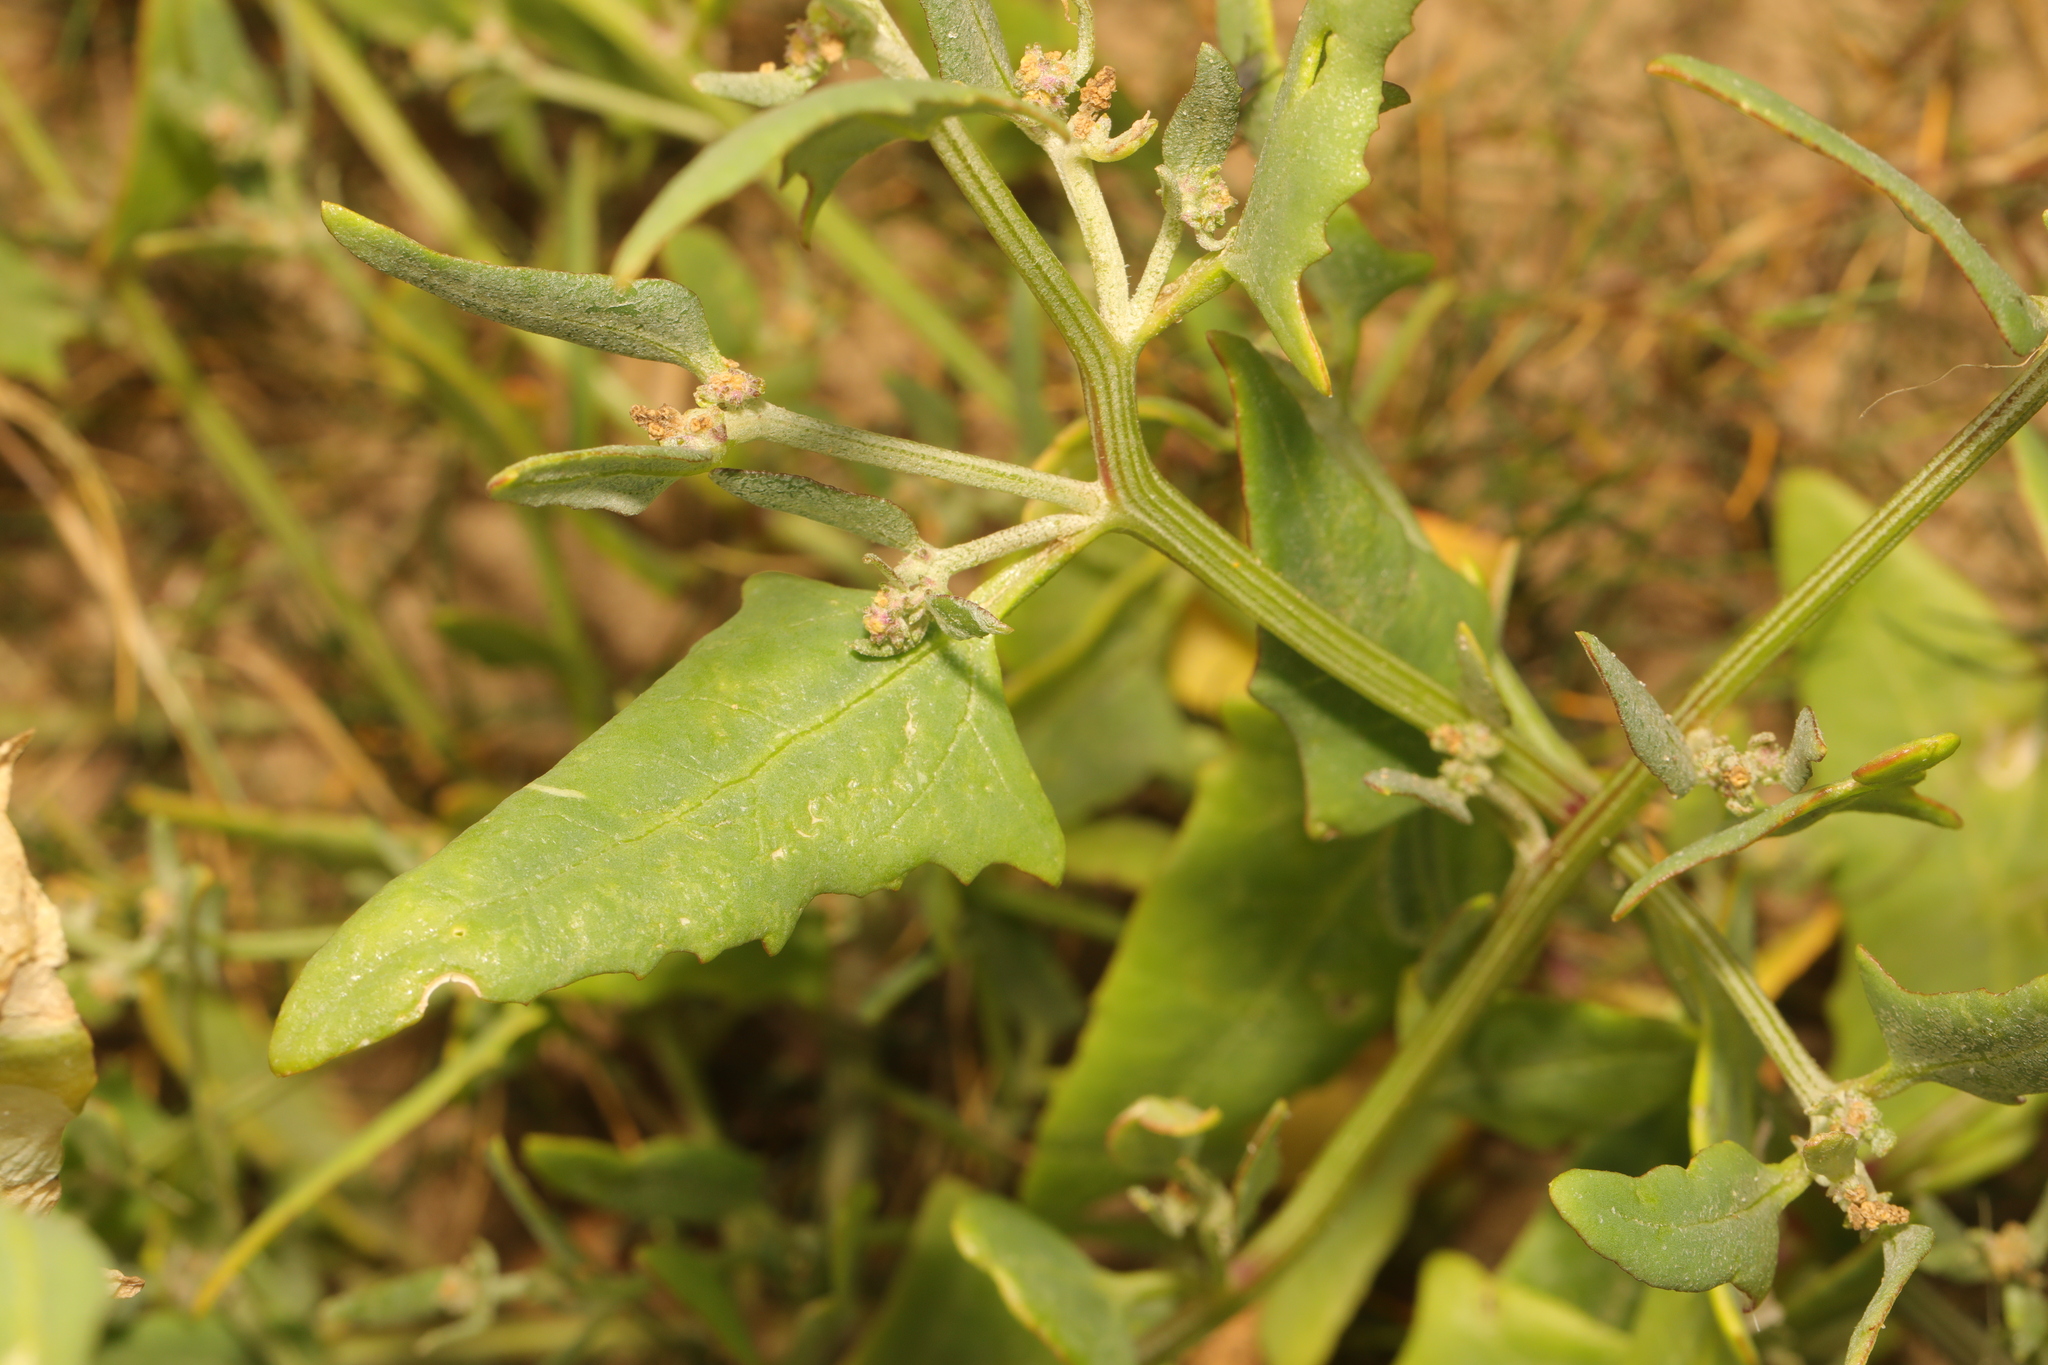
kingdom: Plantae
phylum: Tracheophyta
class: Magnoliopsida
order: Caryophyllales
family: Amaranthaceae
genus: Atriplex
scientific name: Atriplex patula
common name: Common orache
